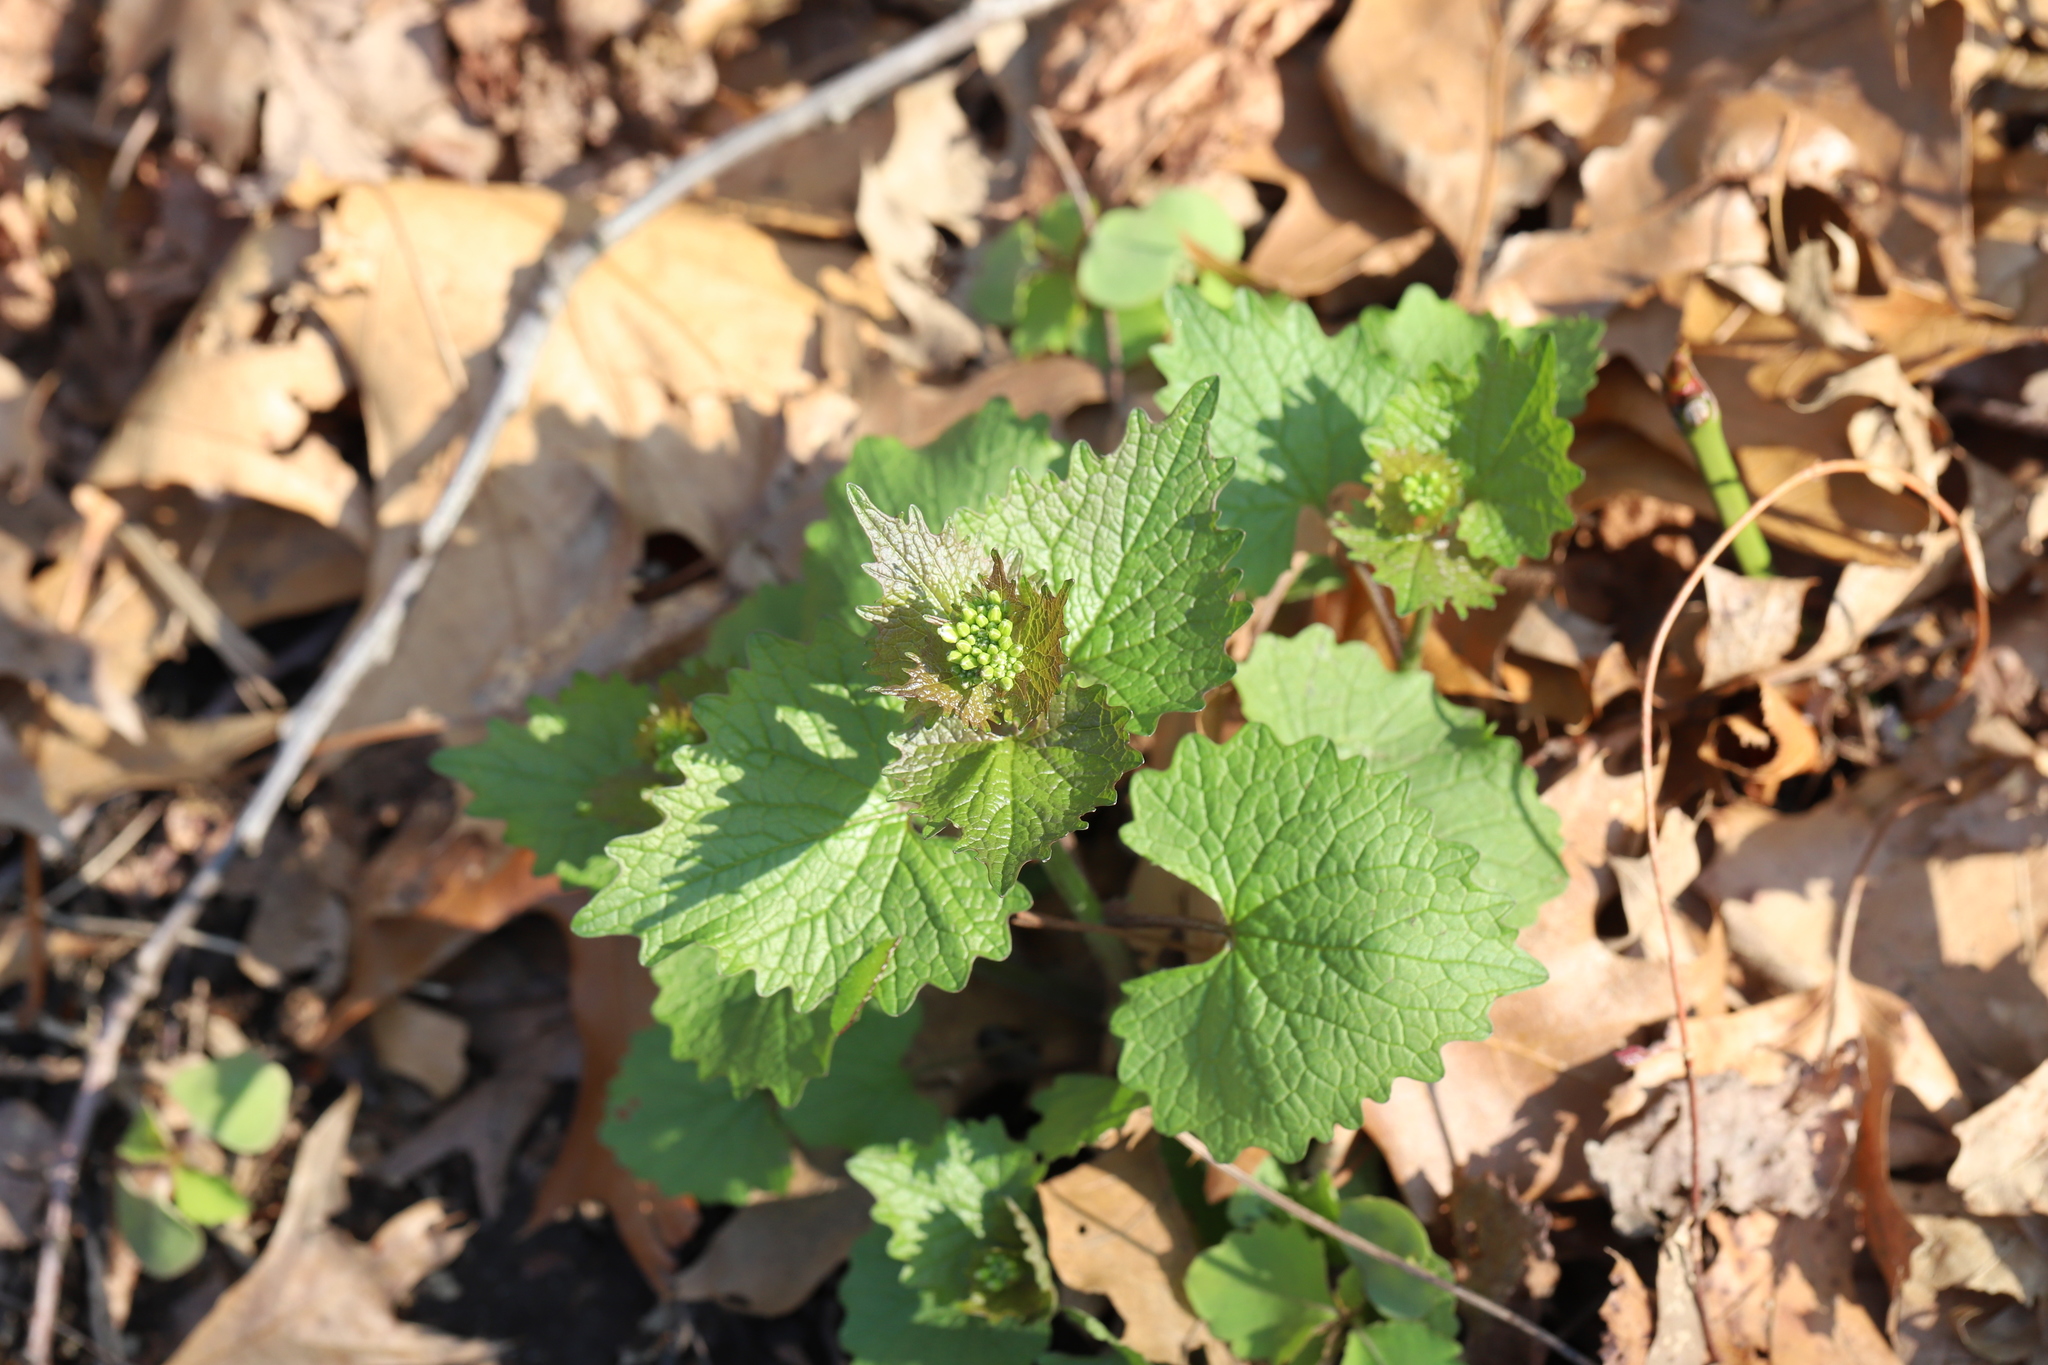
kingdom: Plantae
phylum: Tracheophyta
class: Magnoliopsida
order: Brassicales
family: Brassicaceae
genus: Alliaria
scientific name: Alliaria petiolata
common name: Garlic mustard
